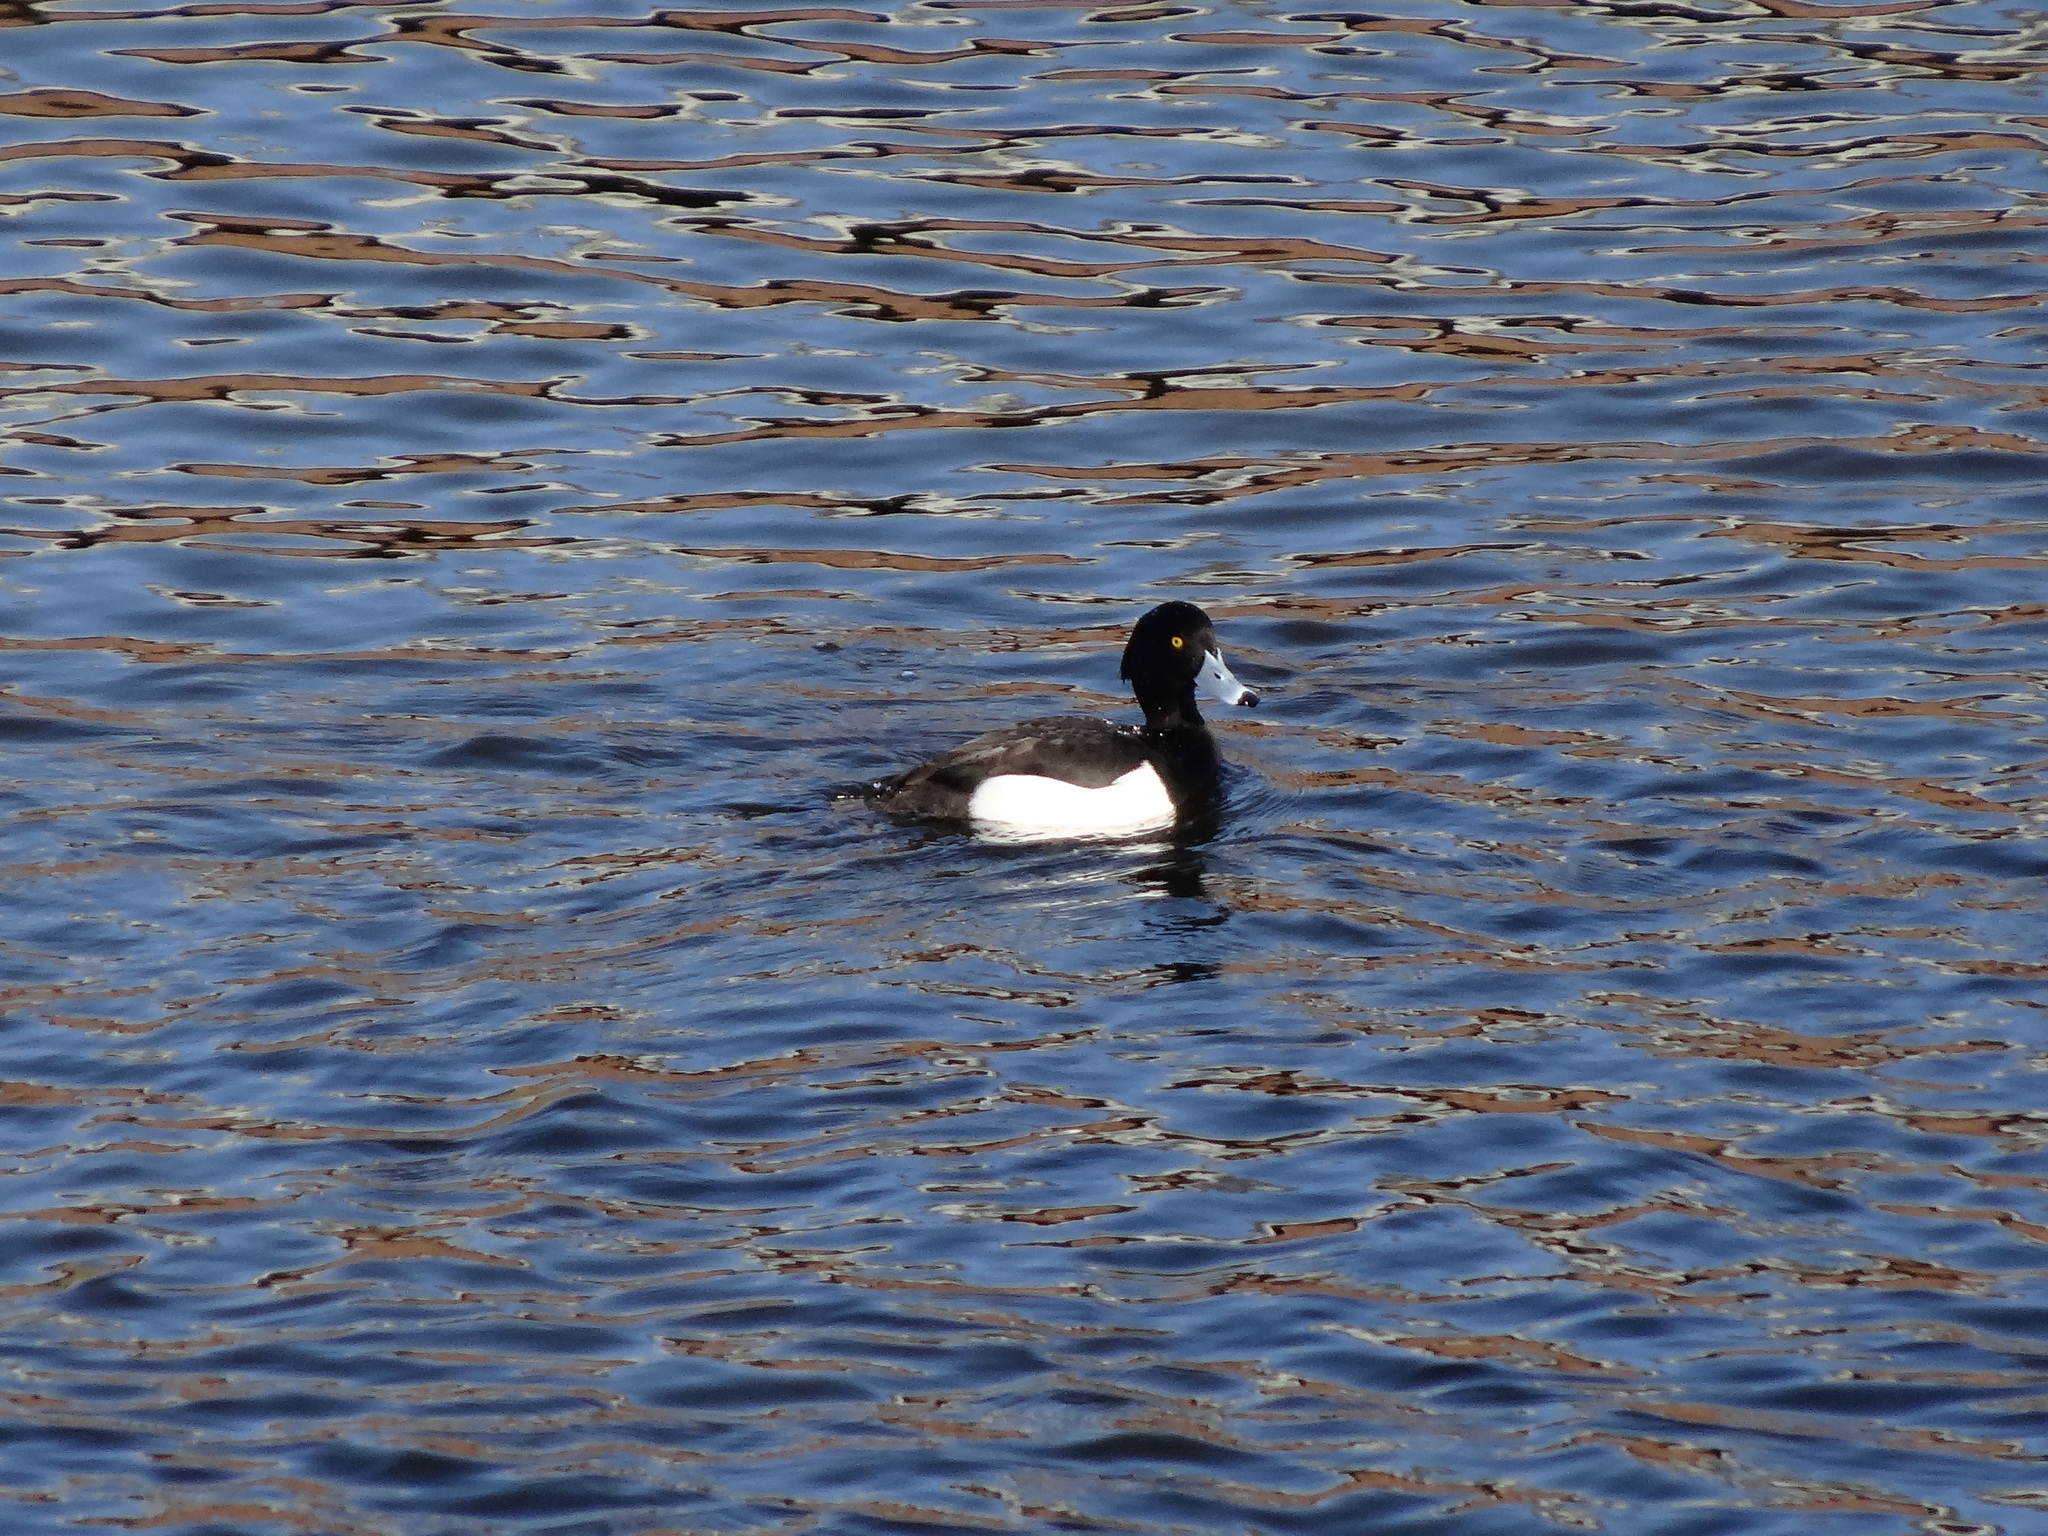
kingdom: Animalia
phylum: Chordata
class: Aves
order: Anseriformes
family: Anatidae
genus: Aythya
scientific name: Aythya fuligula
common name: Tufted duck
